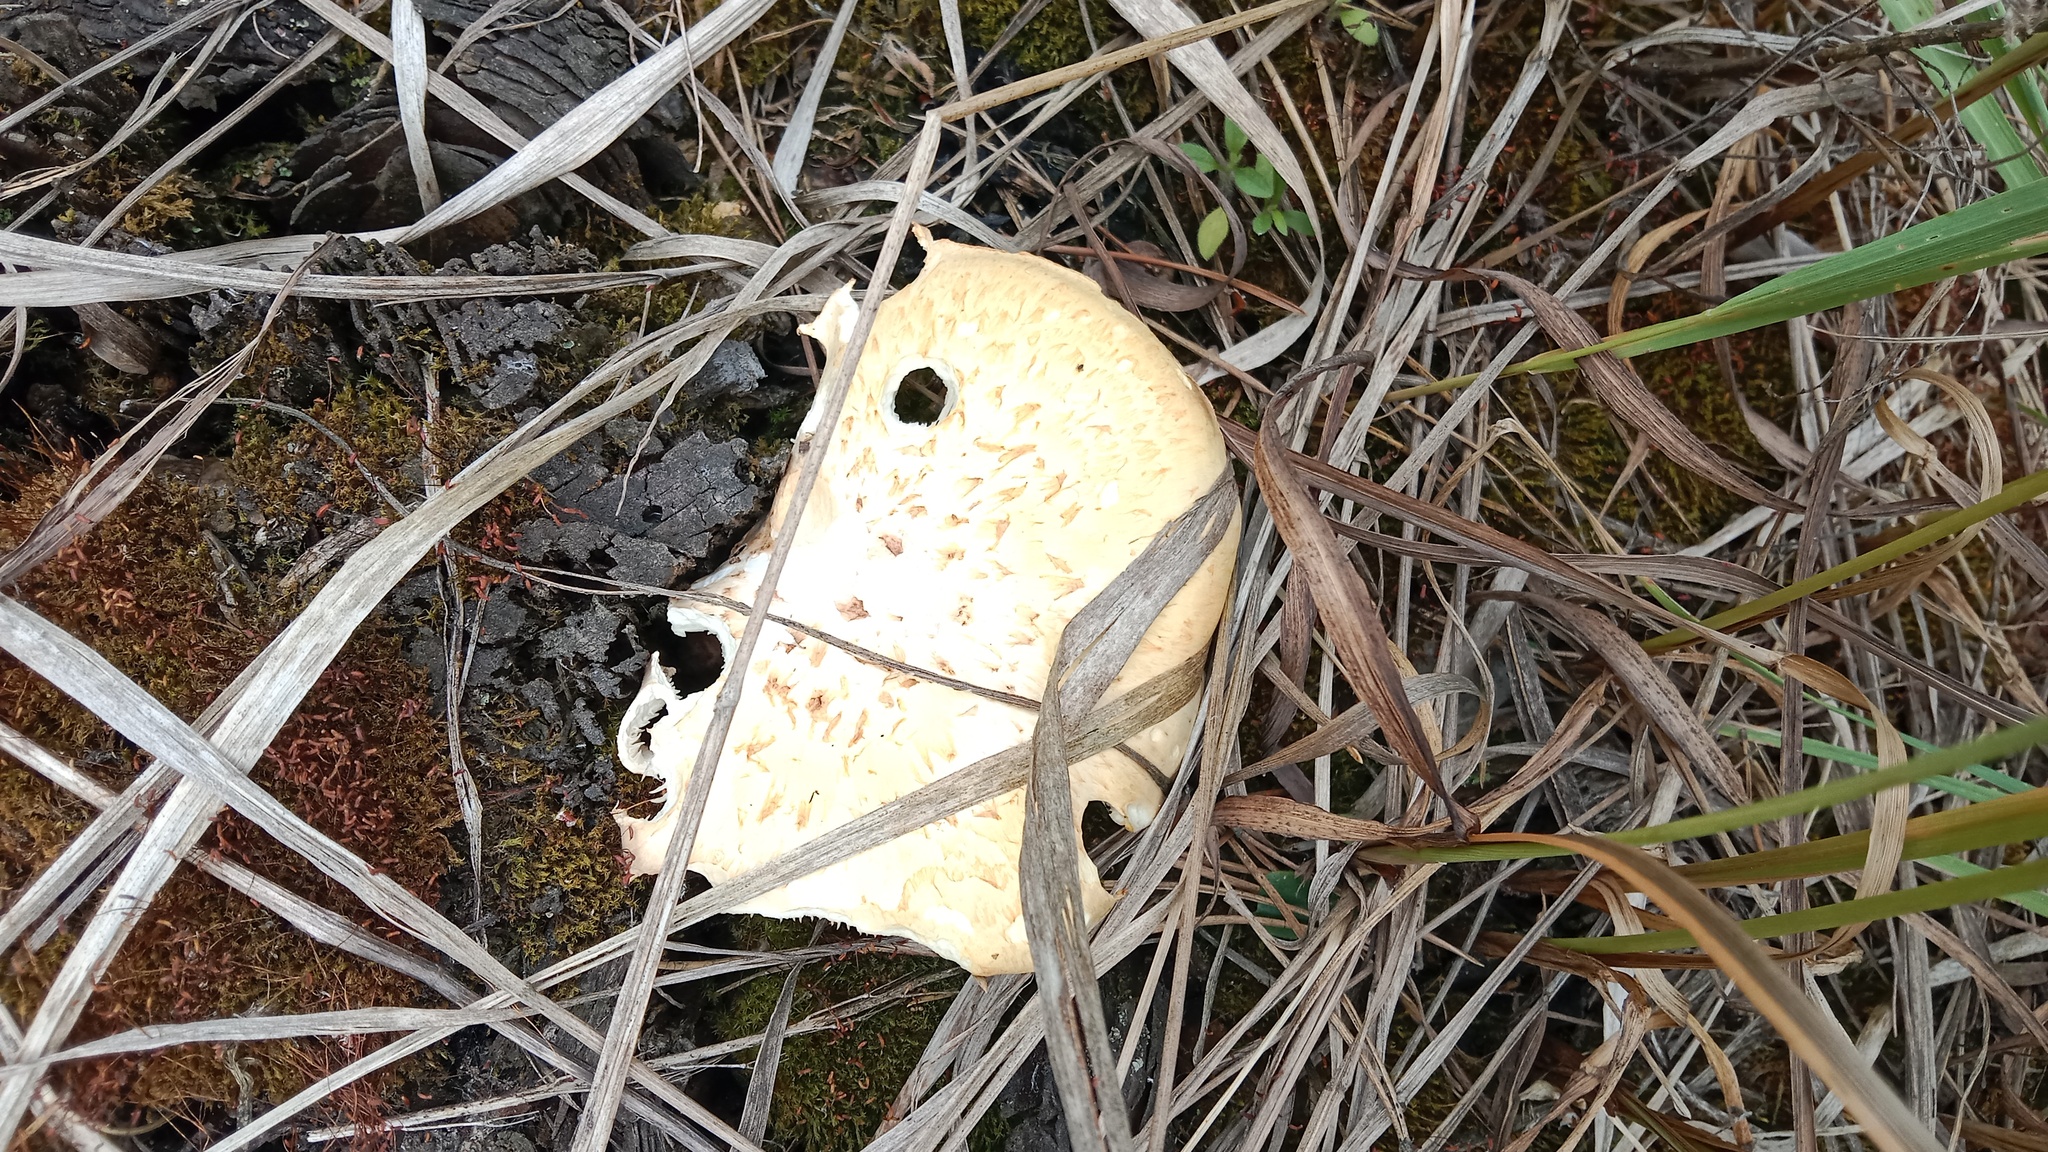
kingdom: Fungi
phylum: Basidiomycota
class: Agaricomycetes
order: Gloeophyllales
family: Gloeophyllaceae
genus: Neolentinus
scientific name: Neolentinus lepideus
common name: Scaly sawgill
